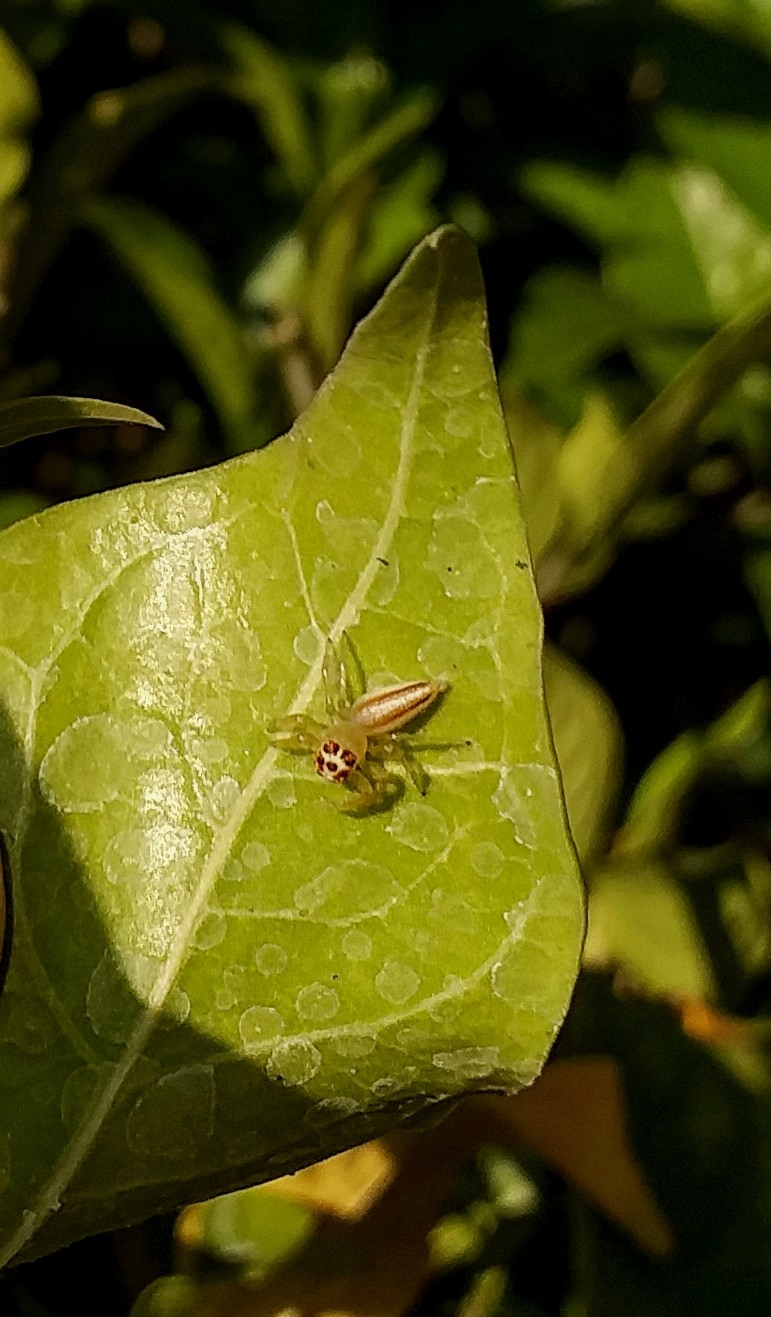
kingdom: Animalia
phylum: Arthropoda
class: Arachnida
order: Araneae
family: Salticidae
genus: Telamonia
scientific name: Telamonia dimidiata
